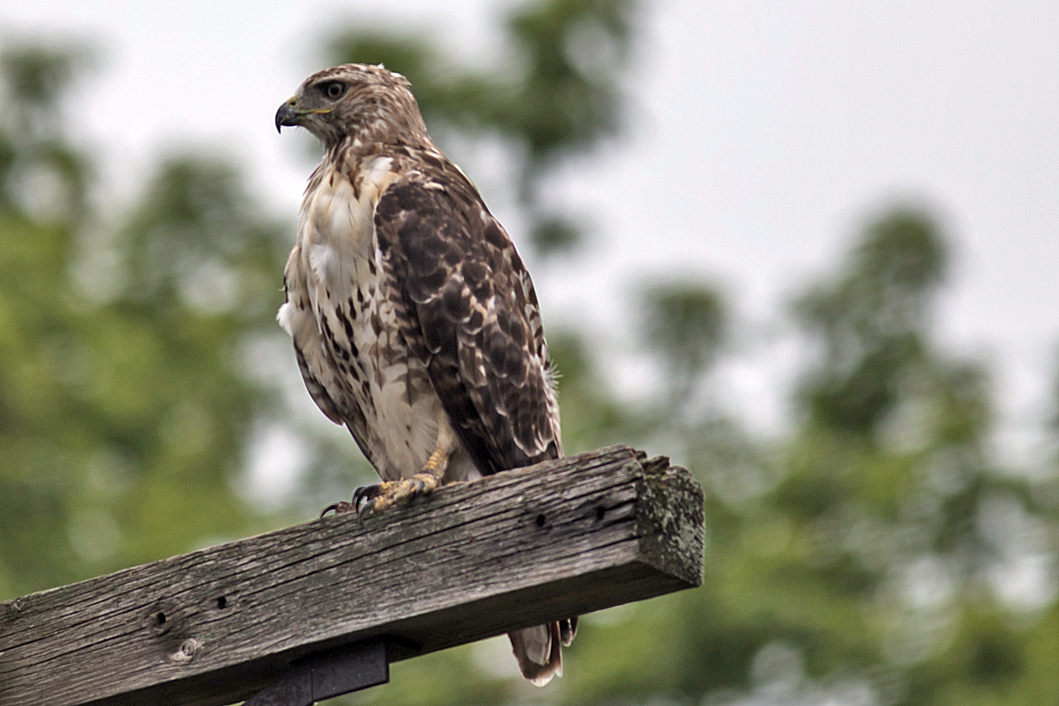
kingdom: Animalia
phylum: Chordata
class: Aves
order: Accipitriformes
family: Accipitridae
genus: Buteo
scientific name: Buteo jamaicensis
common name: Red-tailed hawk
